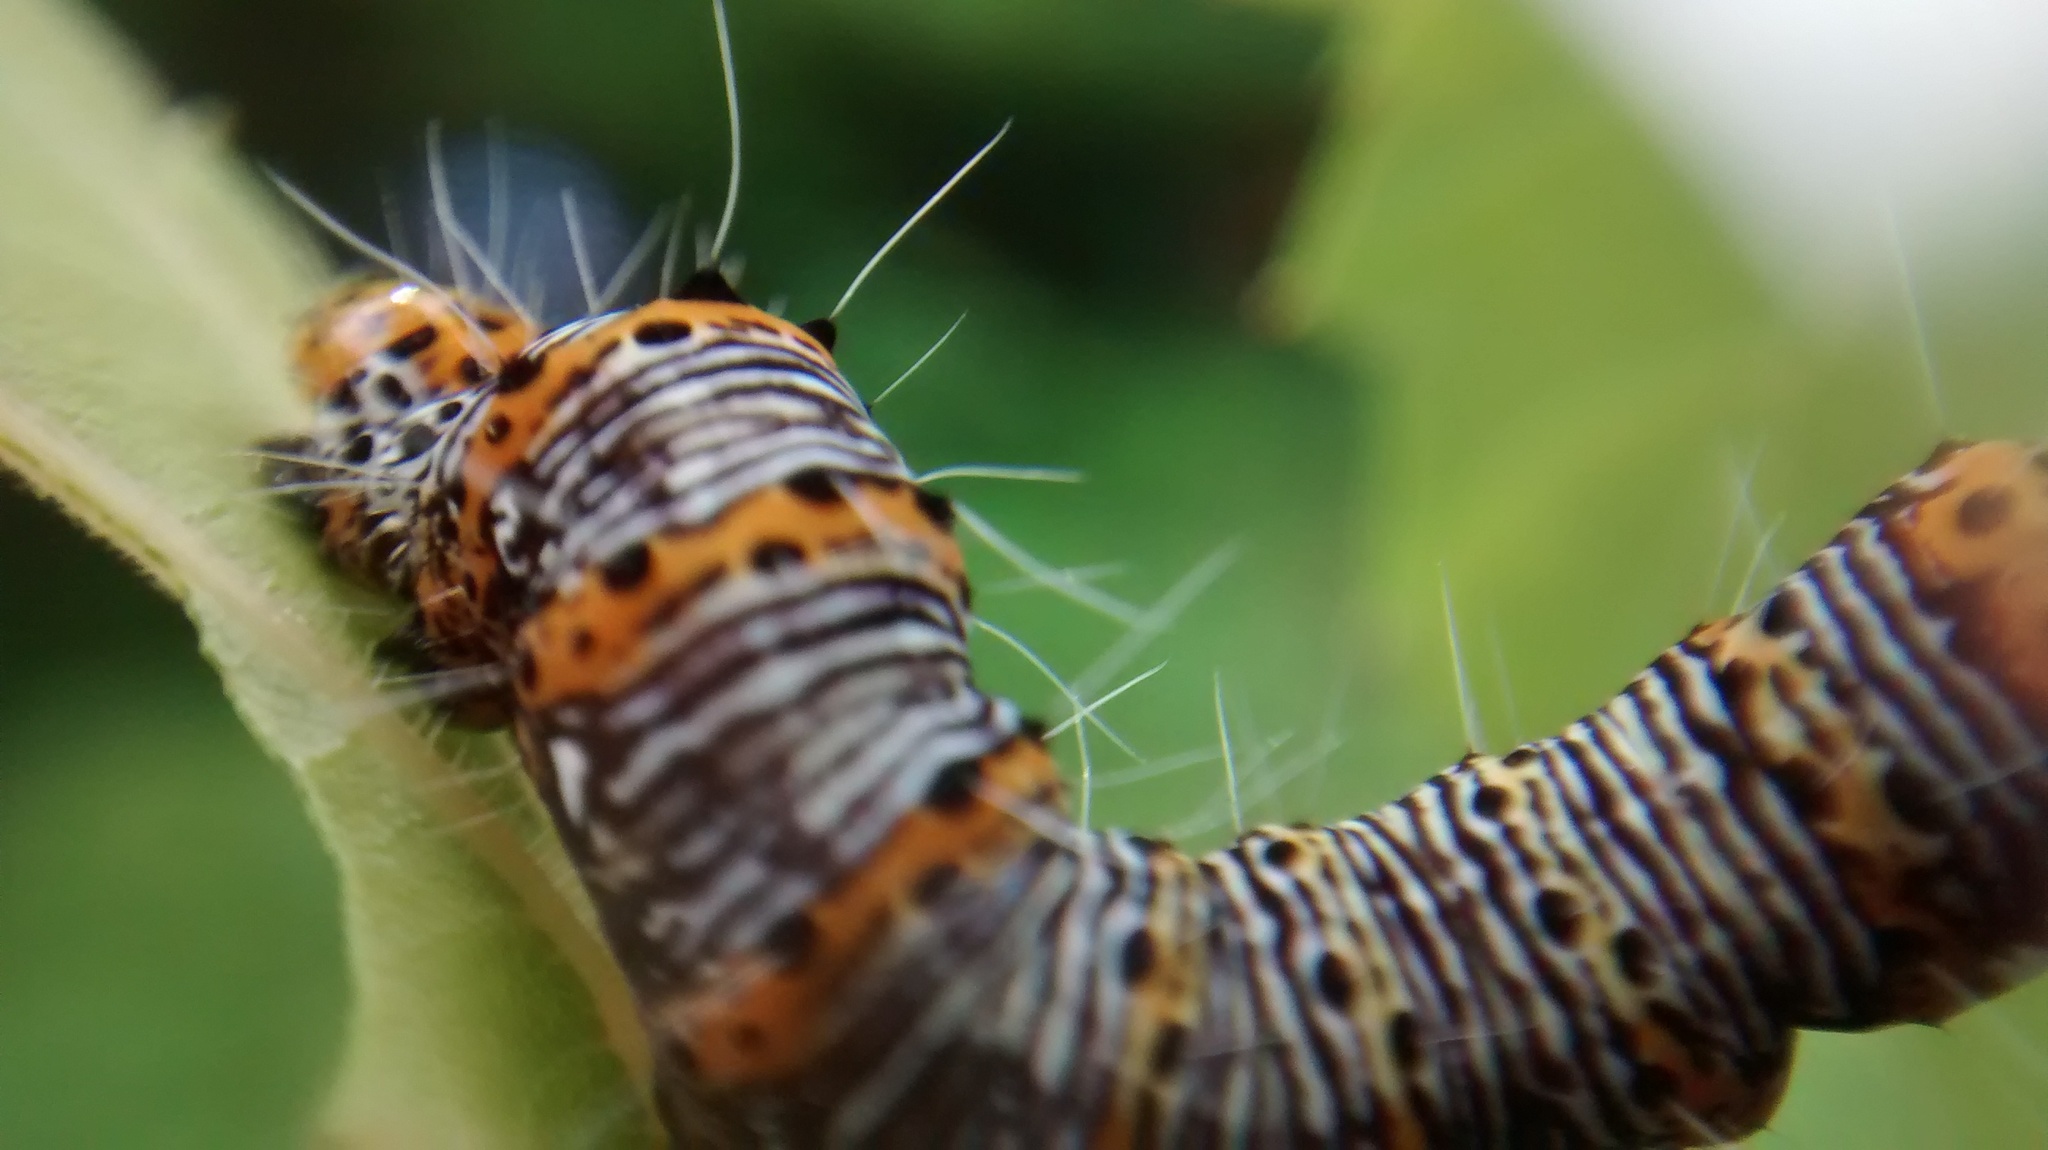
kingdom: Animalia
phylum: Arthropoda
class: Insecta
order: Lepidoptera
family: Noctuidae
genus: Alypia
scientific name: Alypia octomaculata
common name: Eight-spotted forester
